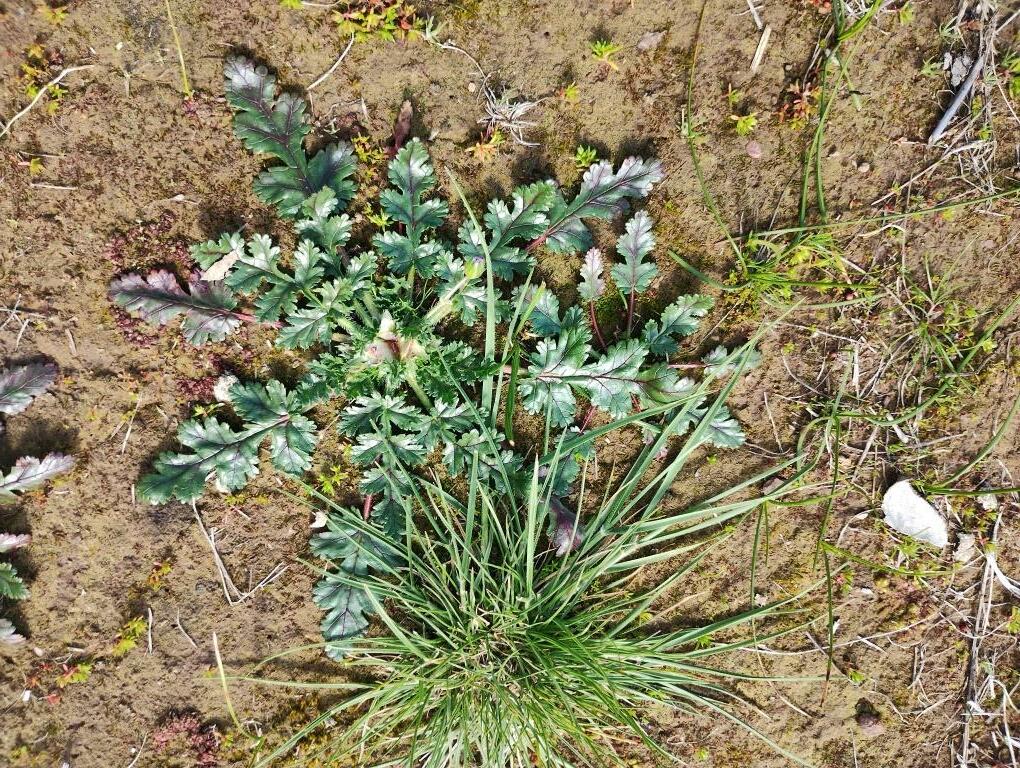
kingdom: Plantae
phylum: Tracheophyta
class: Magnoliopsida
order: Geraniales
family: Geraniaceae
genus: Erodium
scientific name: Erodium botrys
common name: Mediterranean stork's-bill
